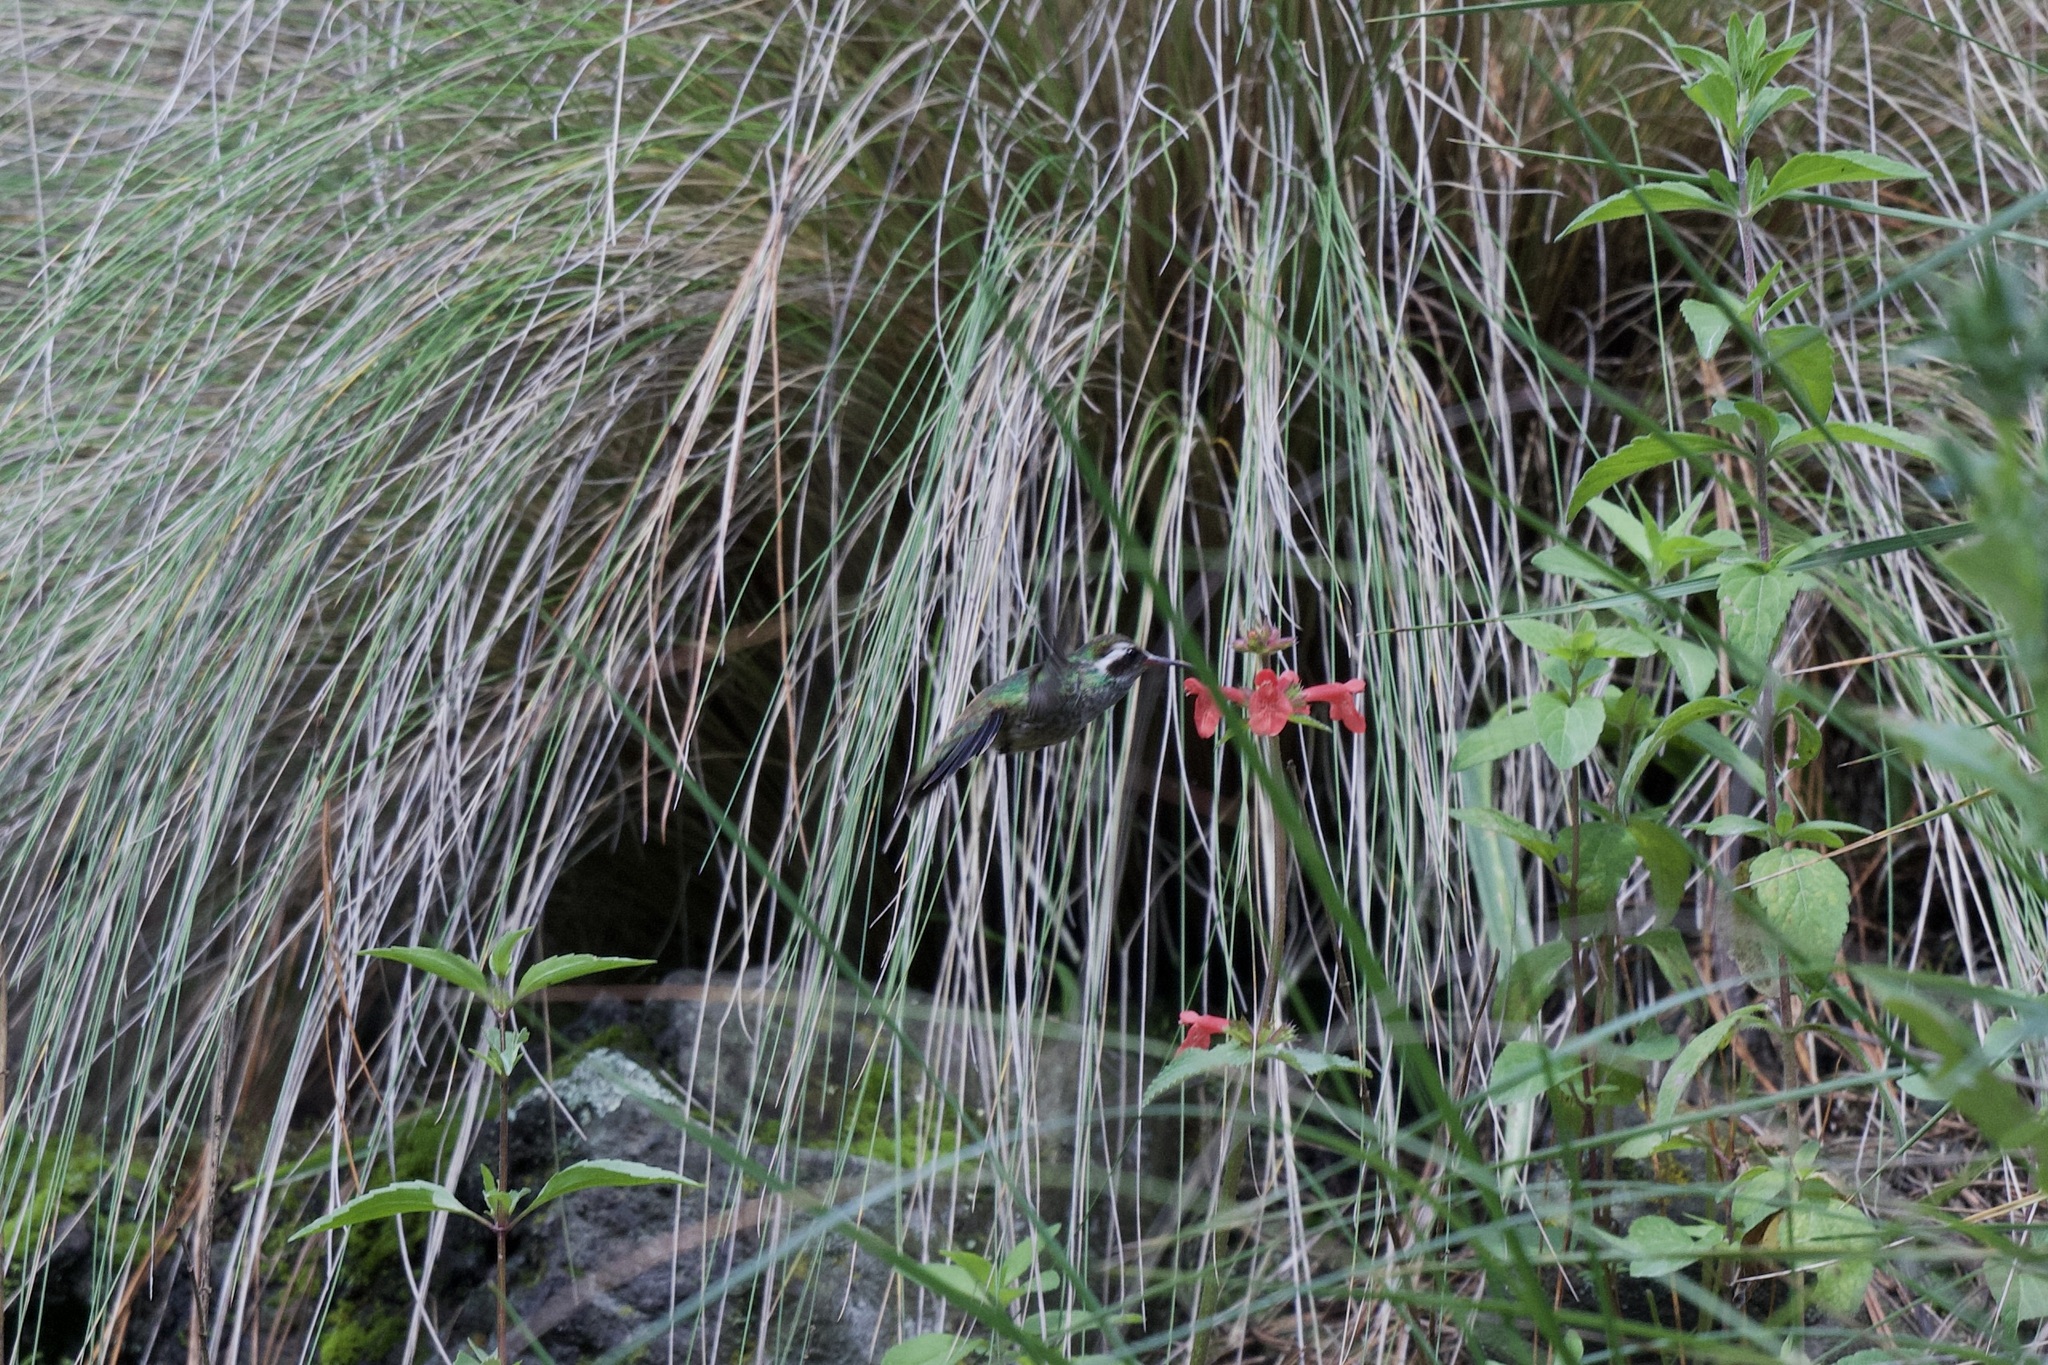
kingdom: Animalia
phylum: Chordata
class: Aves
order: Apodiformes
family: Trochilidae
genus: Basilinna
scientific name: Basilinna leucotis
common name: White-eared hummingbird
